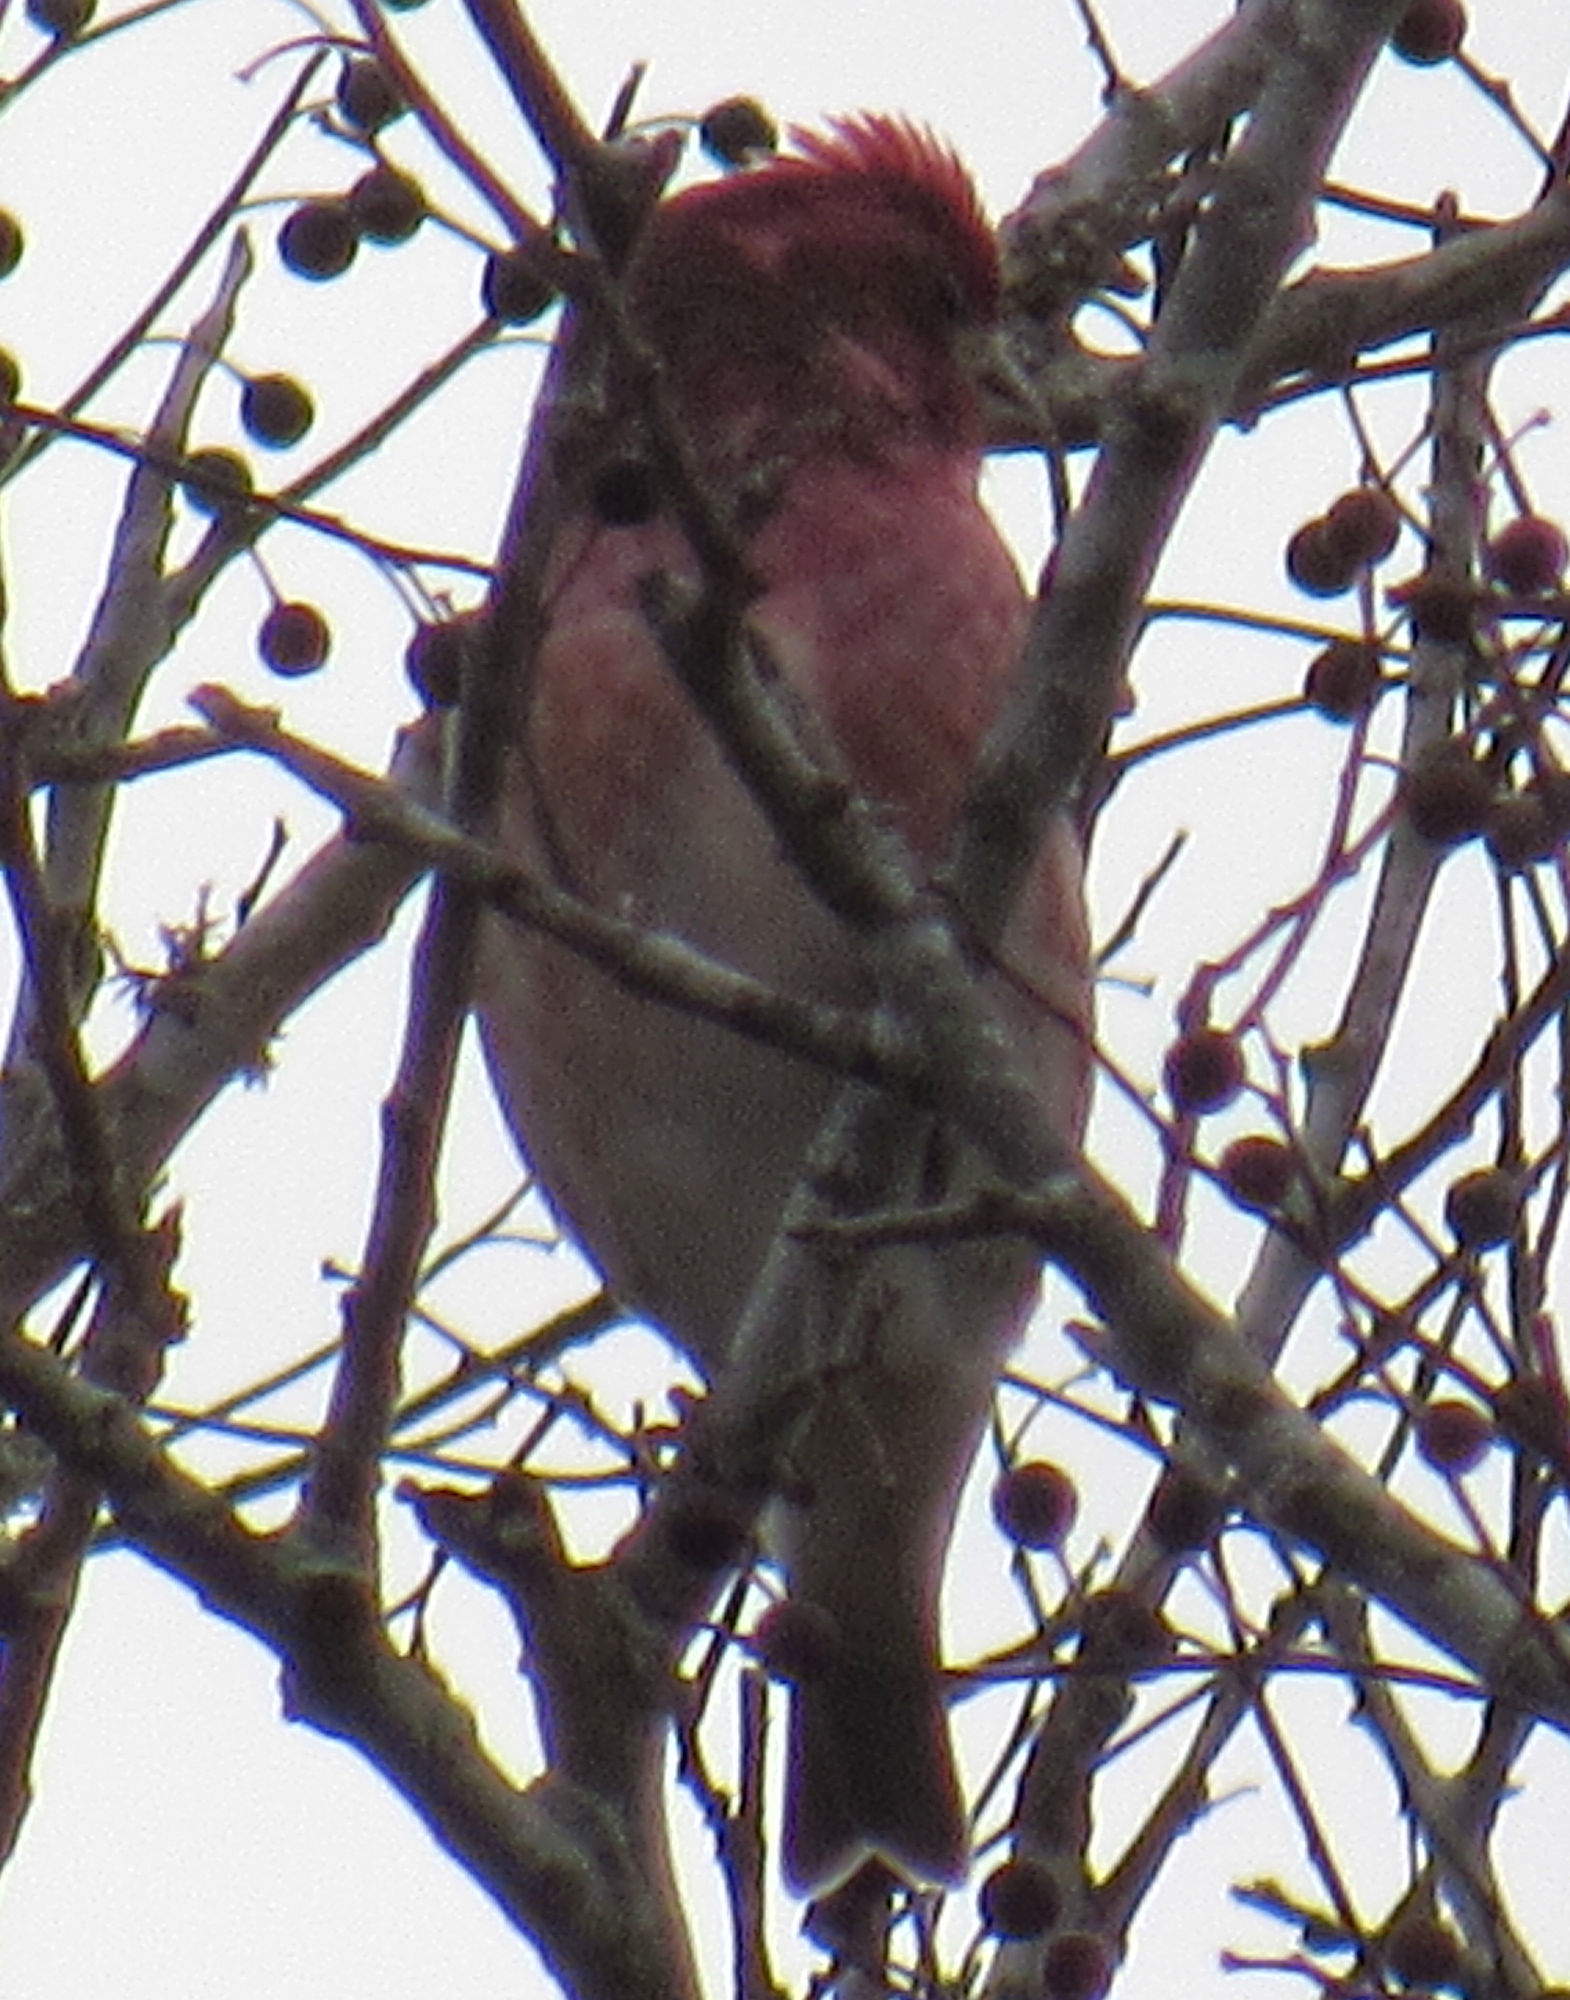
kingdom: Animalia
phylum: Chordata
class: Aves
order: Passeriformes
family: Fringillidae
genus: Haemorhous
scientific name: Haemorhous purpureus
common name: Purple finch
